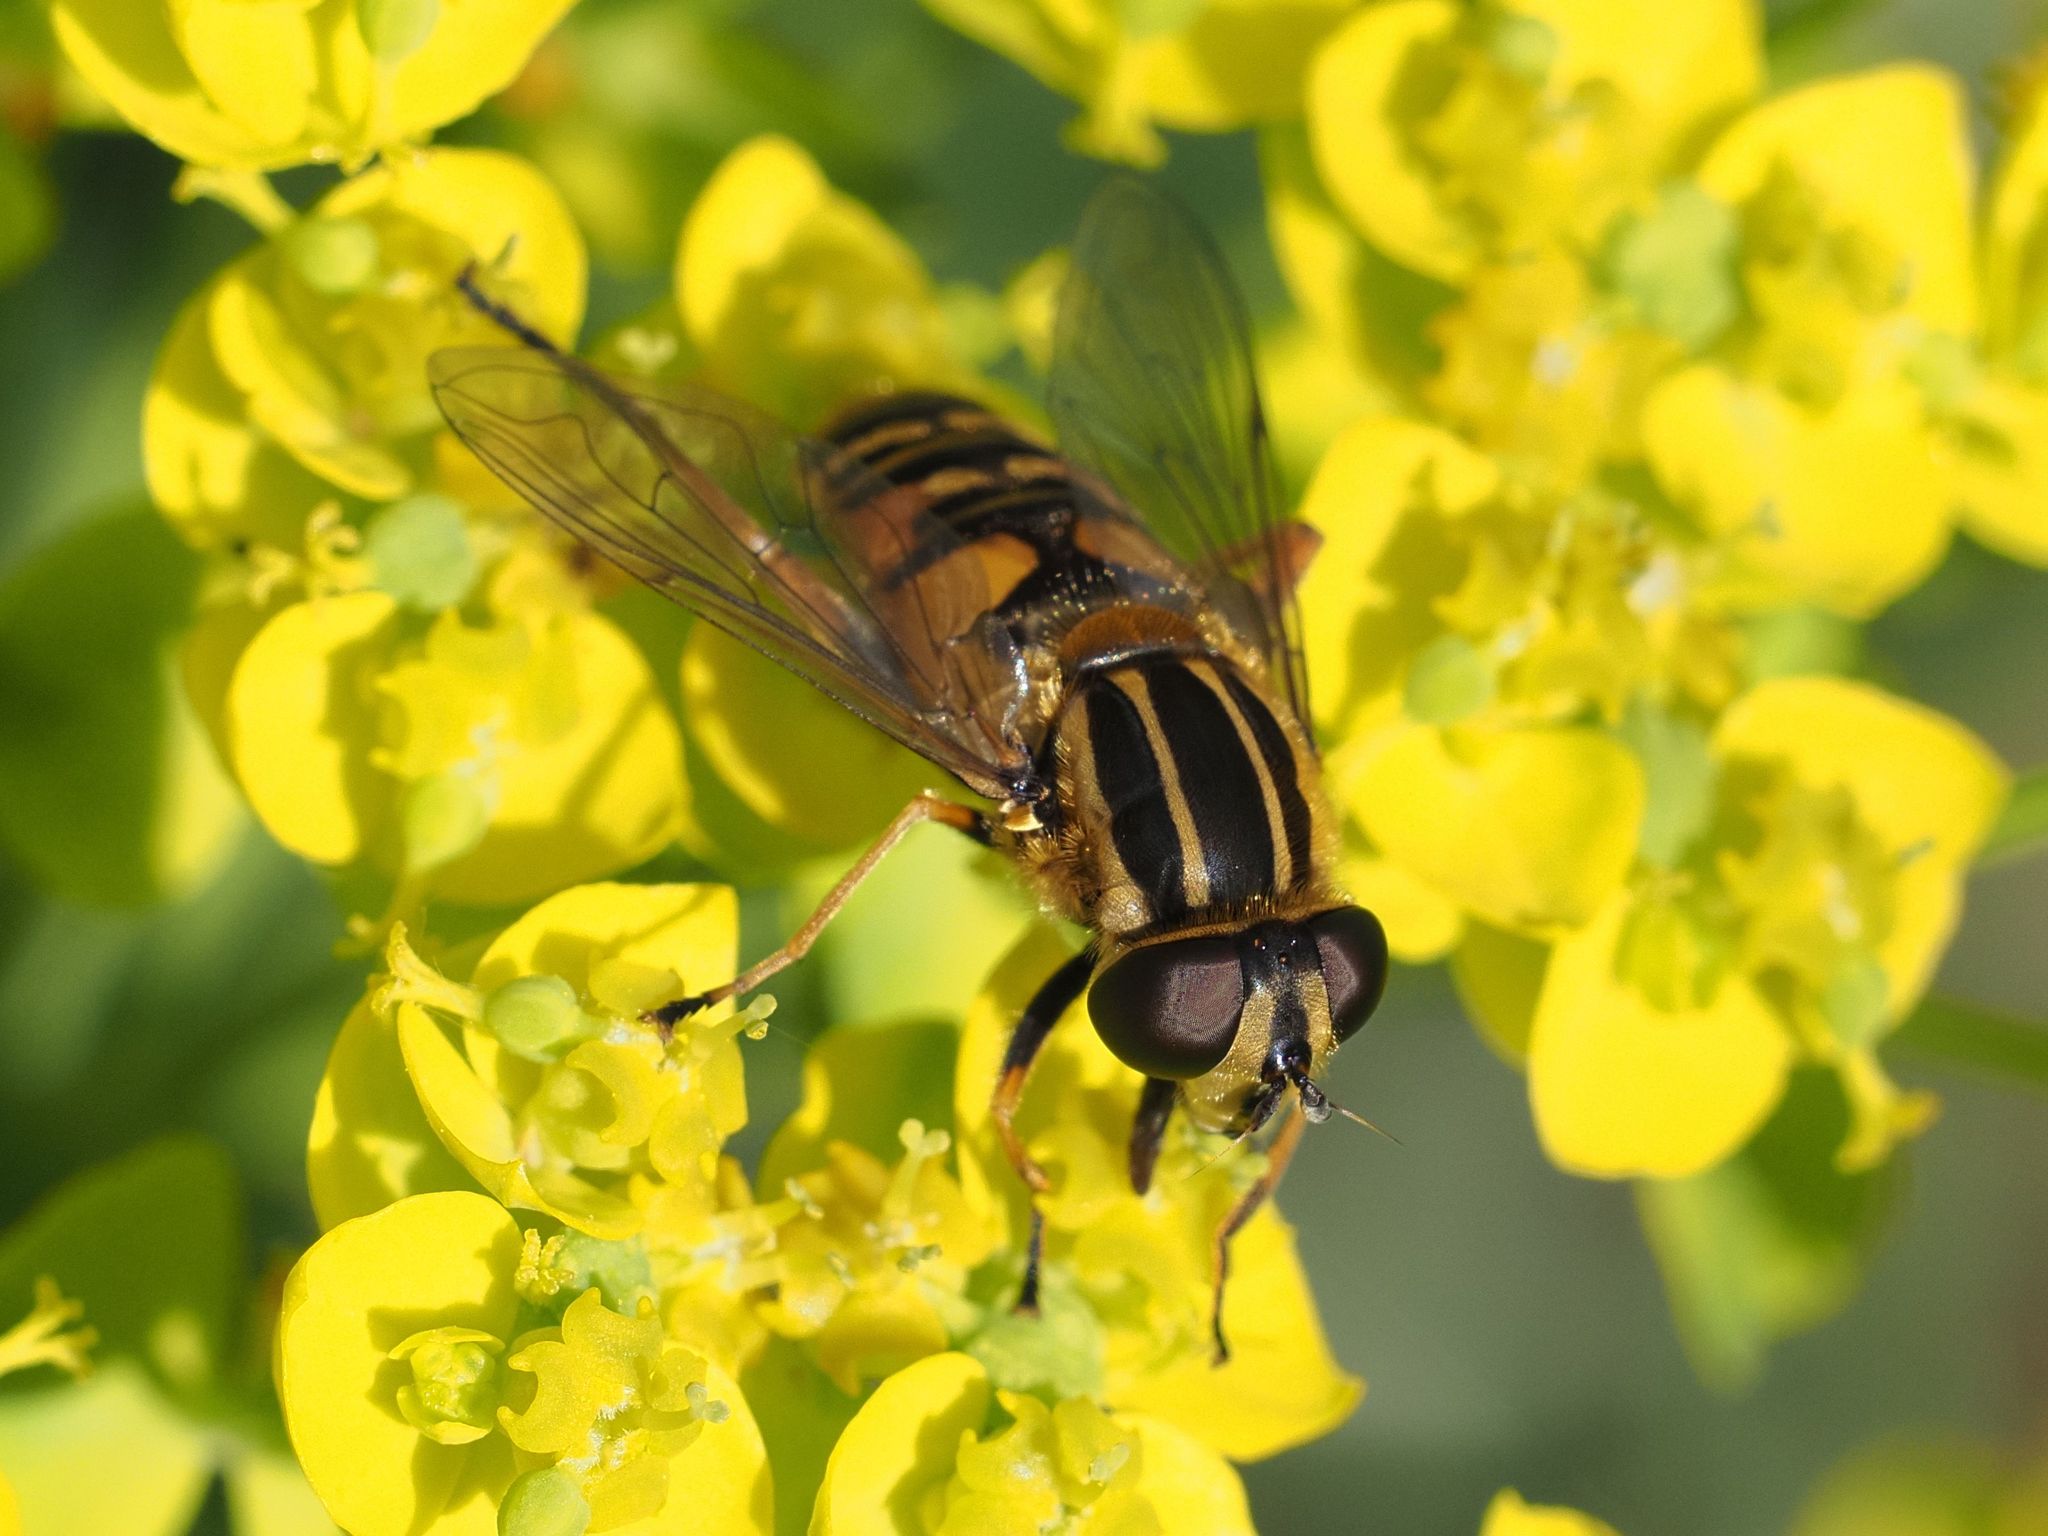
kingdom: Animalia
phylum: Arthropoda
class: Insecta
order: Diptera
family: Syrphidae
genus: Helophilus
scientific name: Helophilus pendulus
